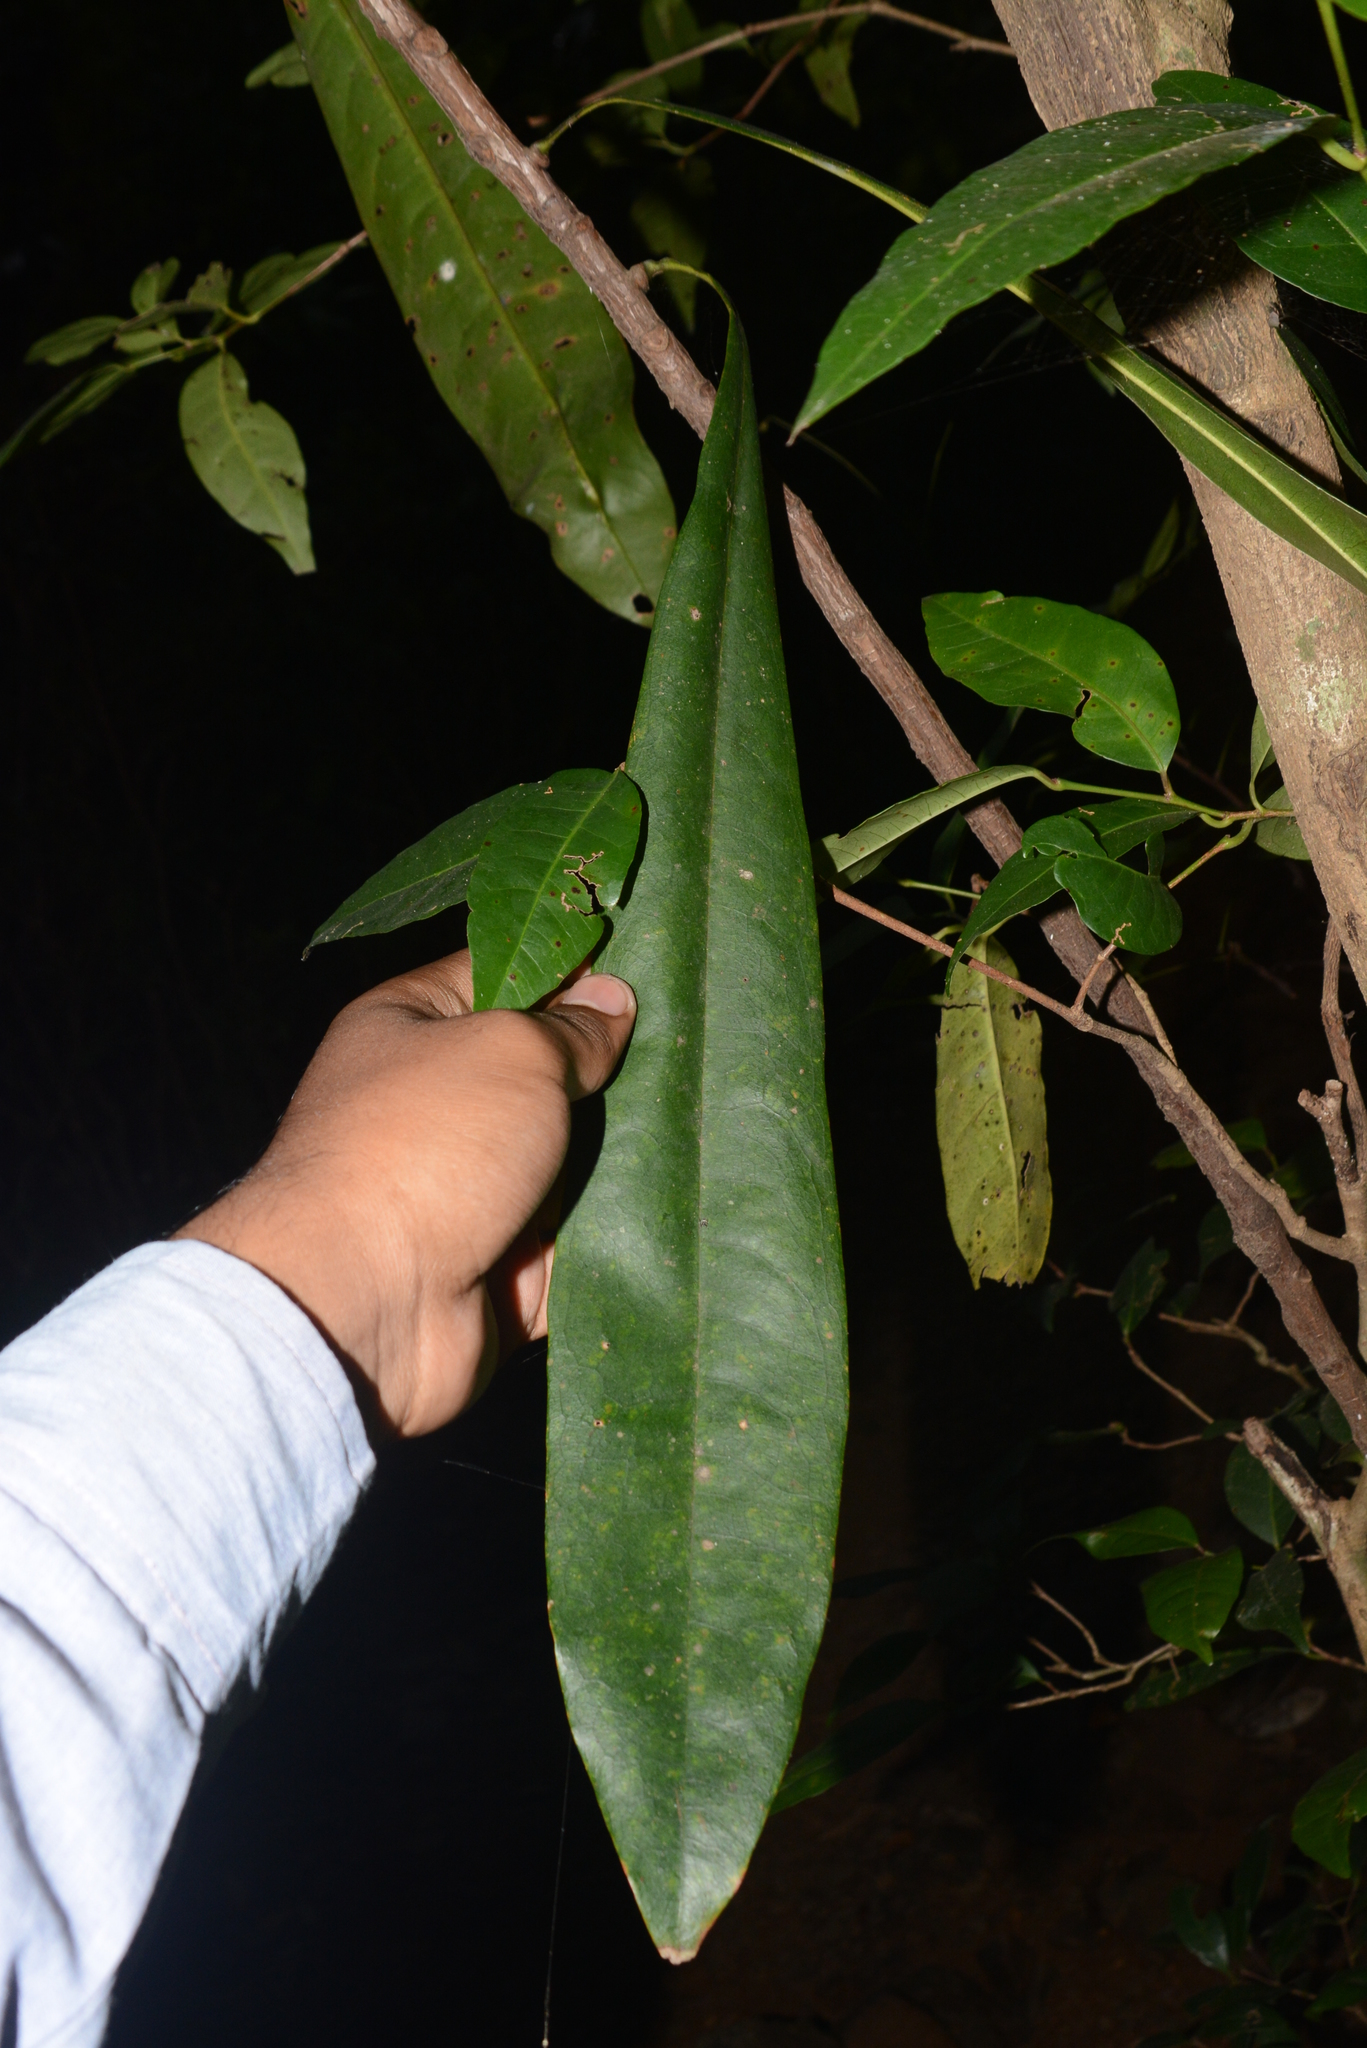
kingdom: Plantae
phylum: Tracheophyta
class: Magnoliopsida
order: Caryophyllales
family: Ancistrocladaceae
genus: Ancistrocladus
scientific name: Ancistrocladus heyneanus
